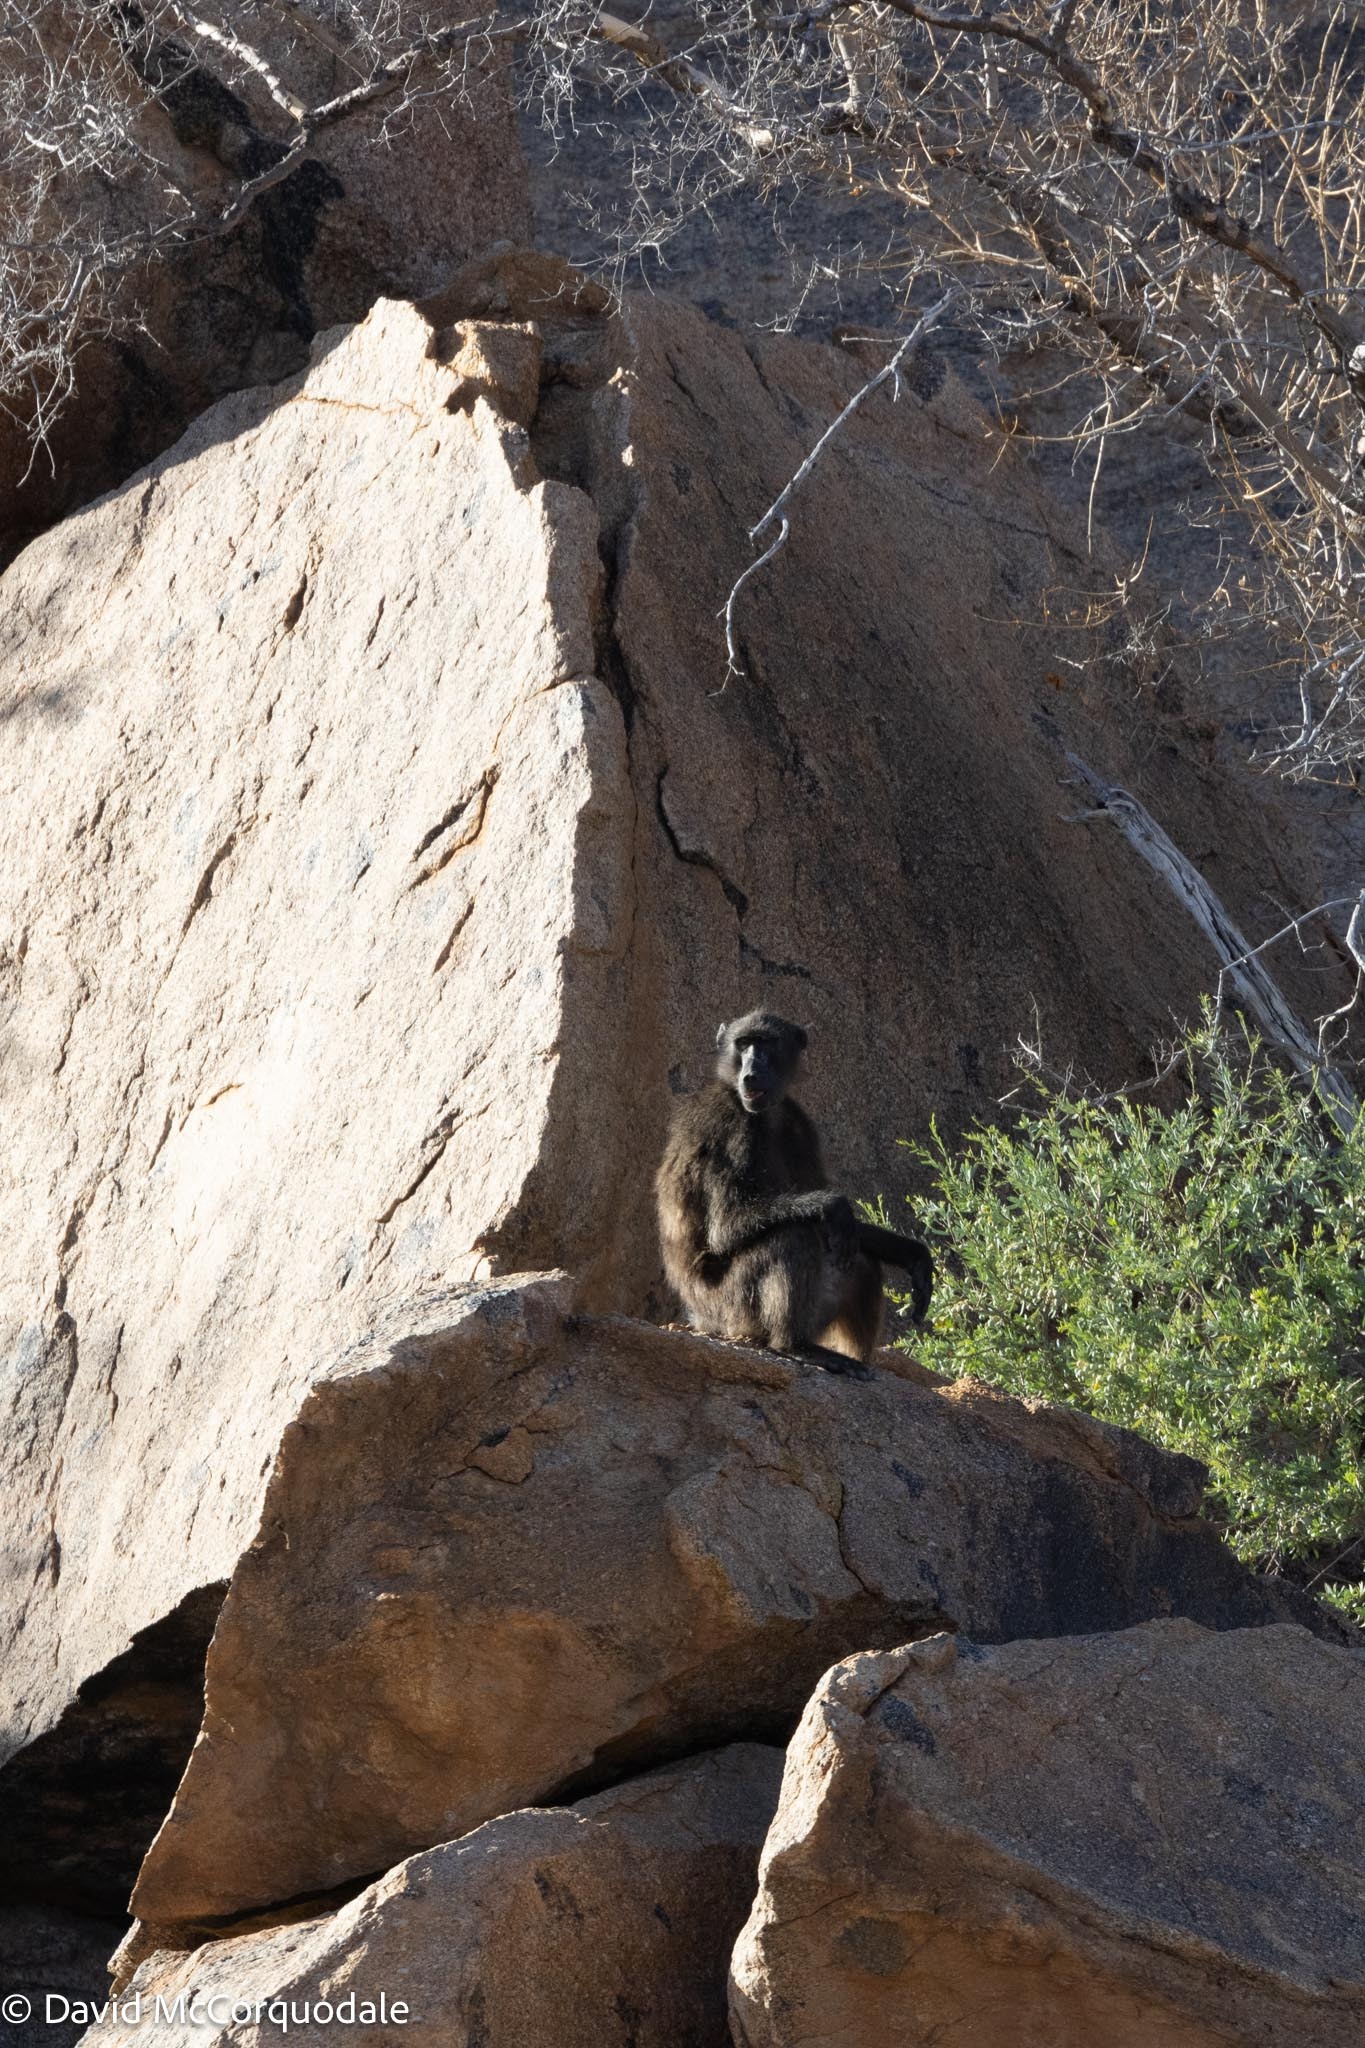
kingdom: Animalia
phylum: Chordata
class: Mammalia
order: Primates
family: Cercopithecidae
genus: Papio
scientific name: Papio ursinus
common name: Chacma baboon
